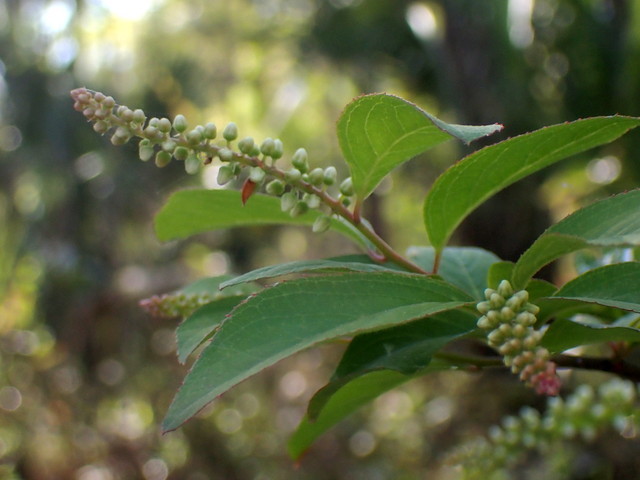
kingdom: Plantae
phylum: Tracheophyta
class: Magnoliopsida
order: Saxifragales
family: Iteaceae
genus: Itea
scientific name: Itea virginica
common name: Sweetspire
